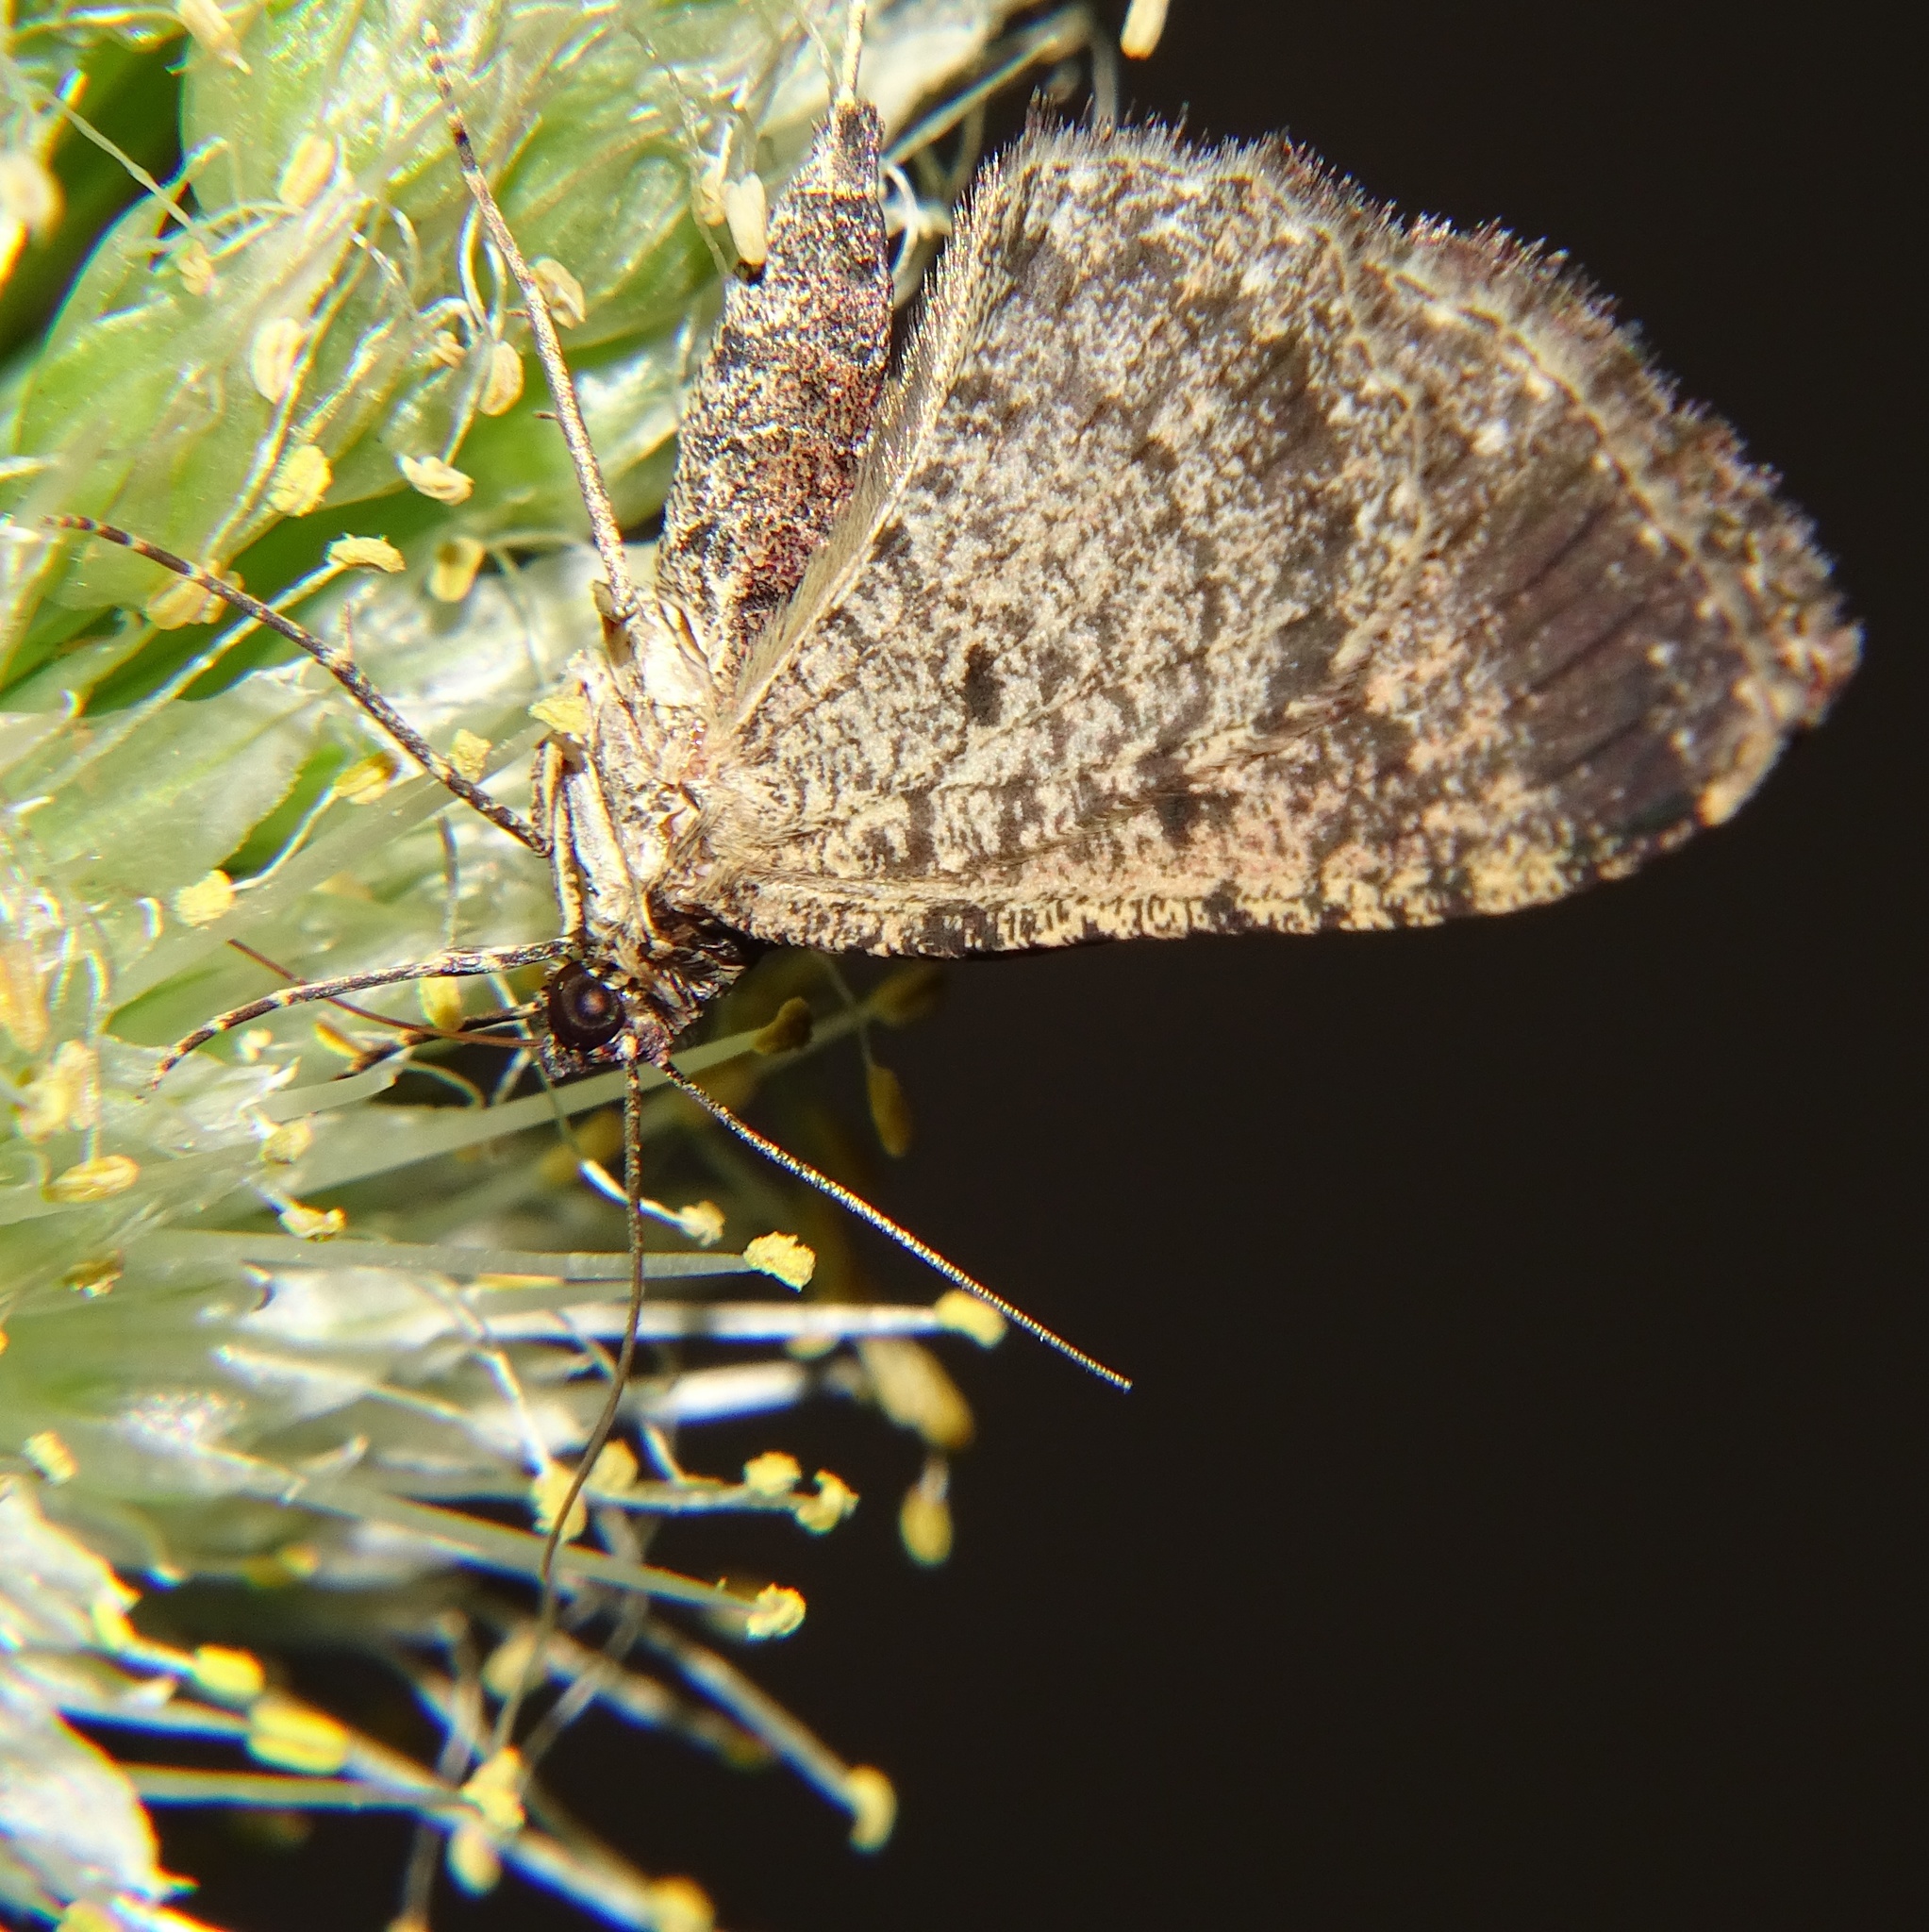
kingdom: Animalia
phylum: Arthropoda
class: Insecta
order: Lepidoptera
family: Geometridae
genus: Disclisioprocta
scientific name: Disclisioprocta stellata
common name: Somber carpet
